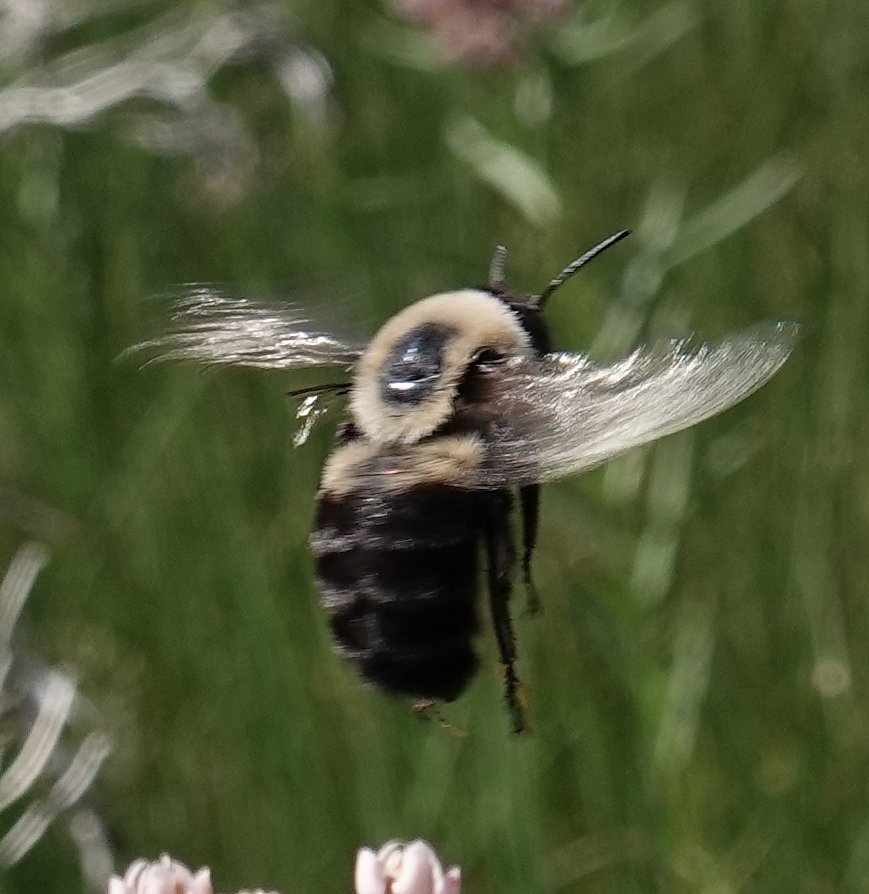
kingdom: Animalia
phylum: Arthropoda
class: Insecta
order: Hymenoptera
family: Apidae
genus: Bombus
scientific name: Bombus griseocollis
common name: Brown-belted bumble bee
